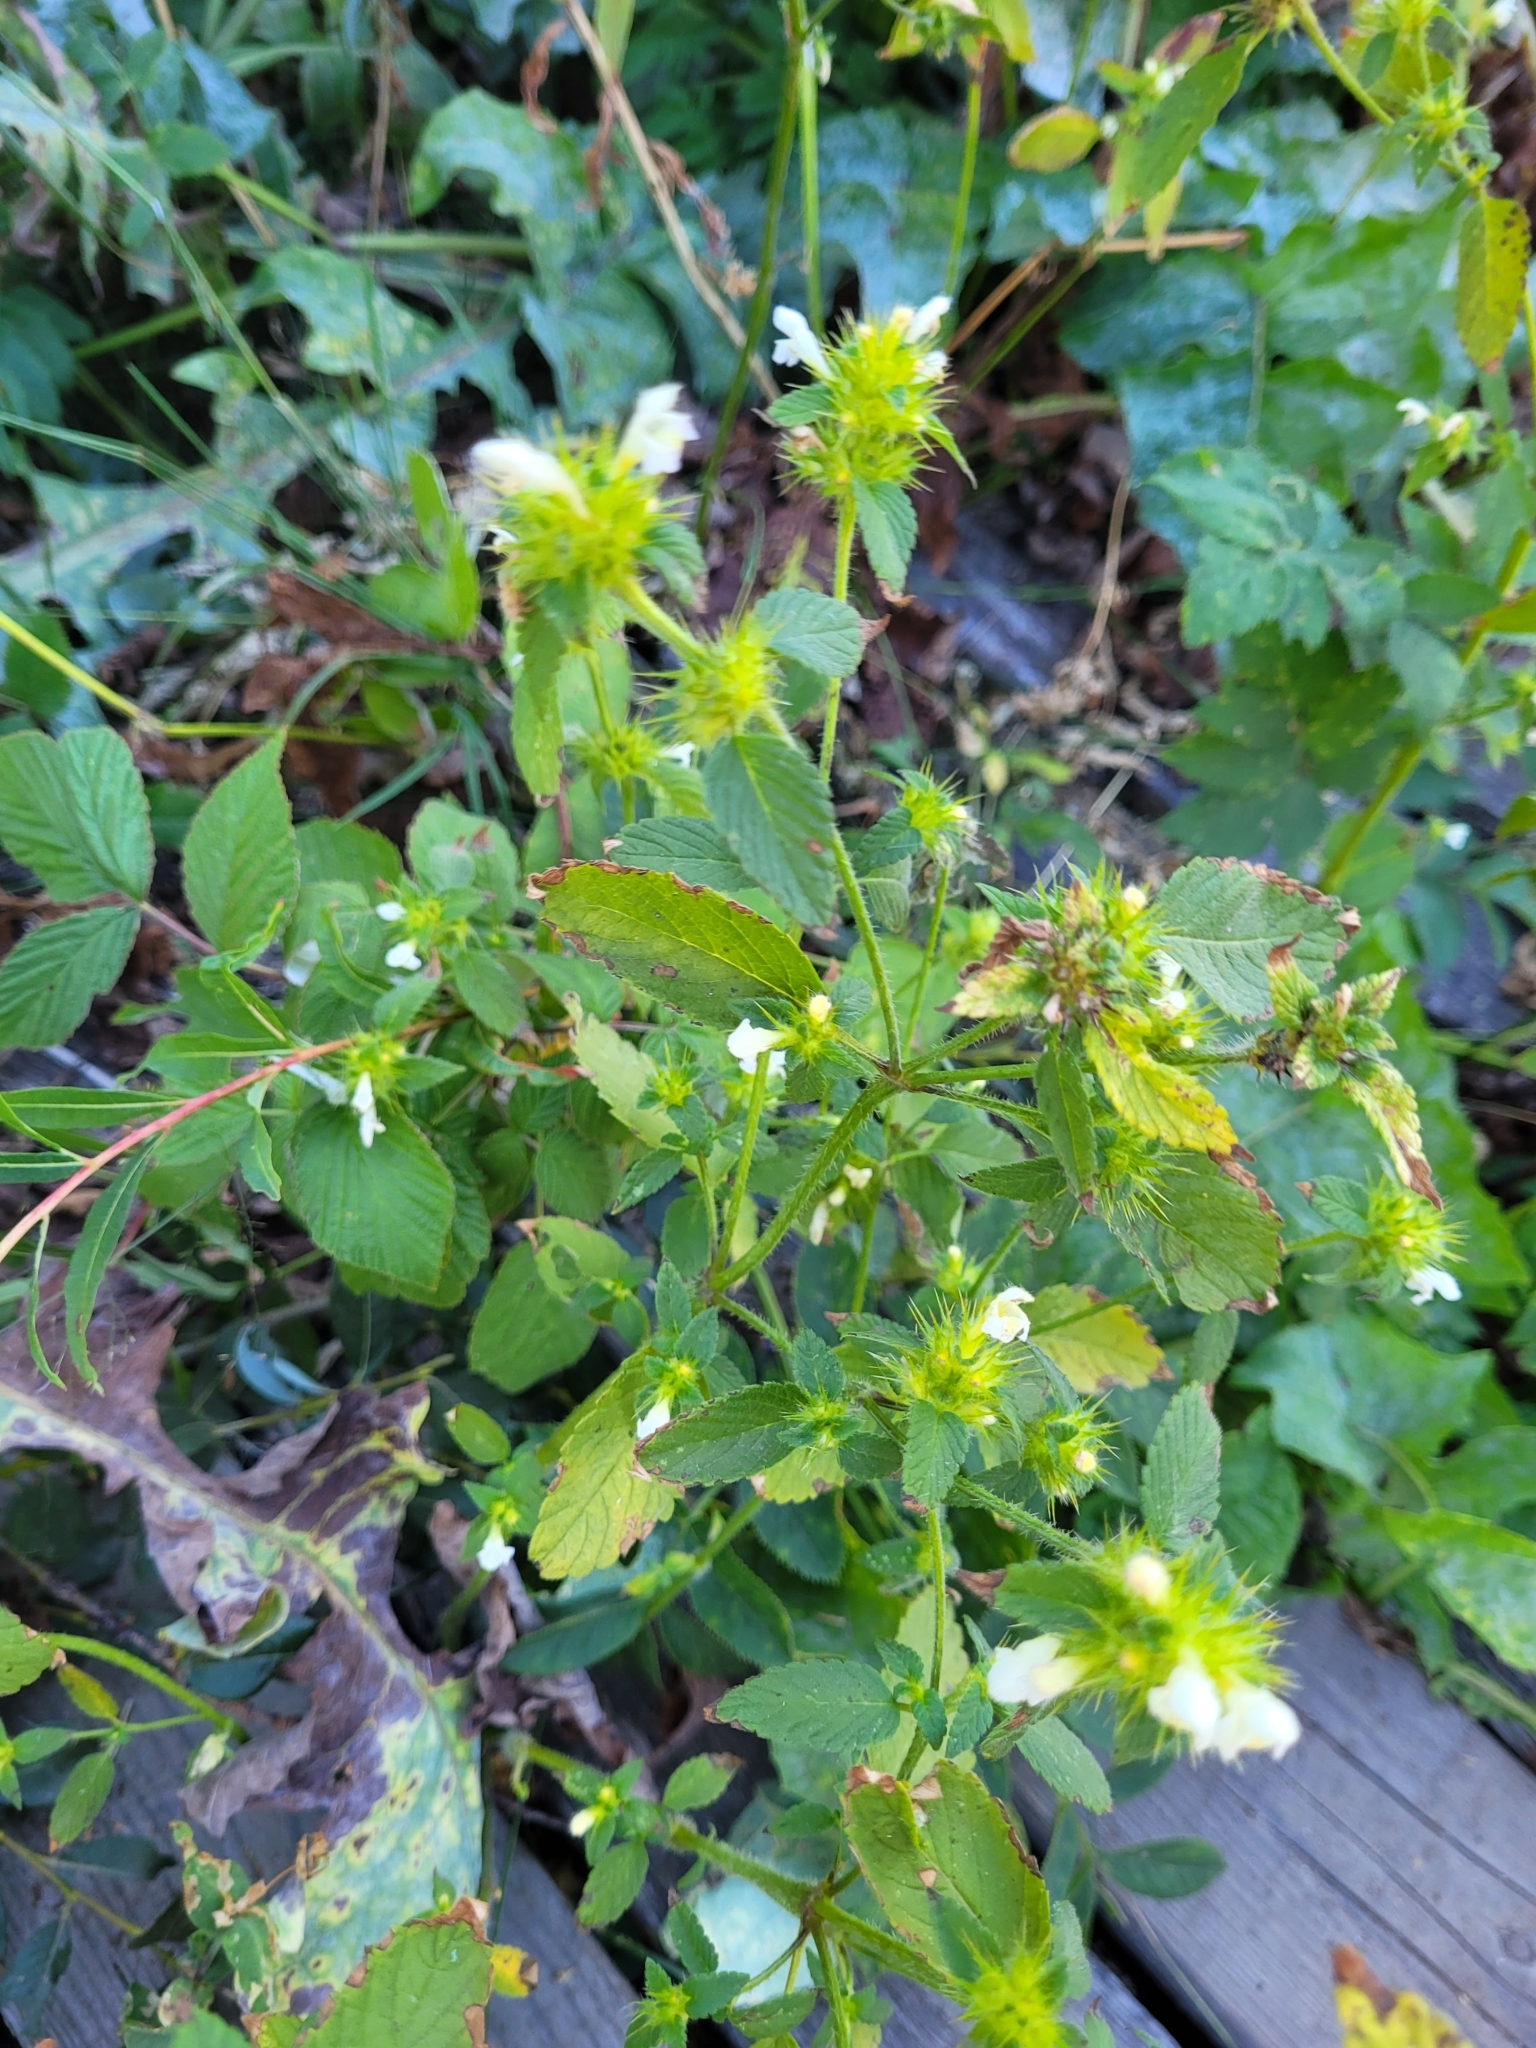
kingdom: Plantae
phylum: Tracheophyta
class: Magnoliopsida
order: Lamiales
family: Lamiaceae
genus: Galeopsis
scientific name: Galeopsis tetrahit
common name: Common hemp-nettle
